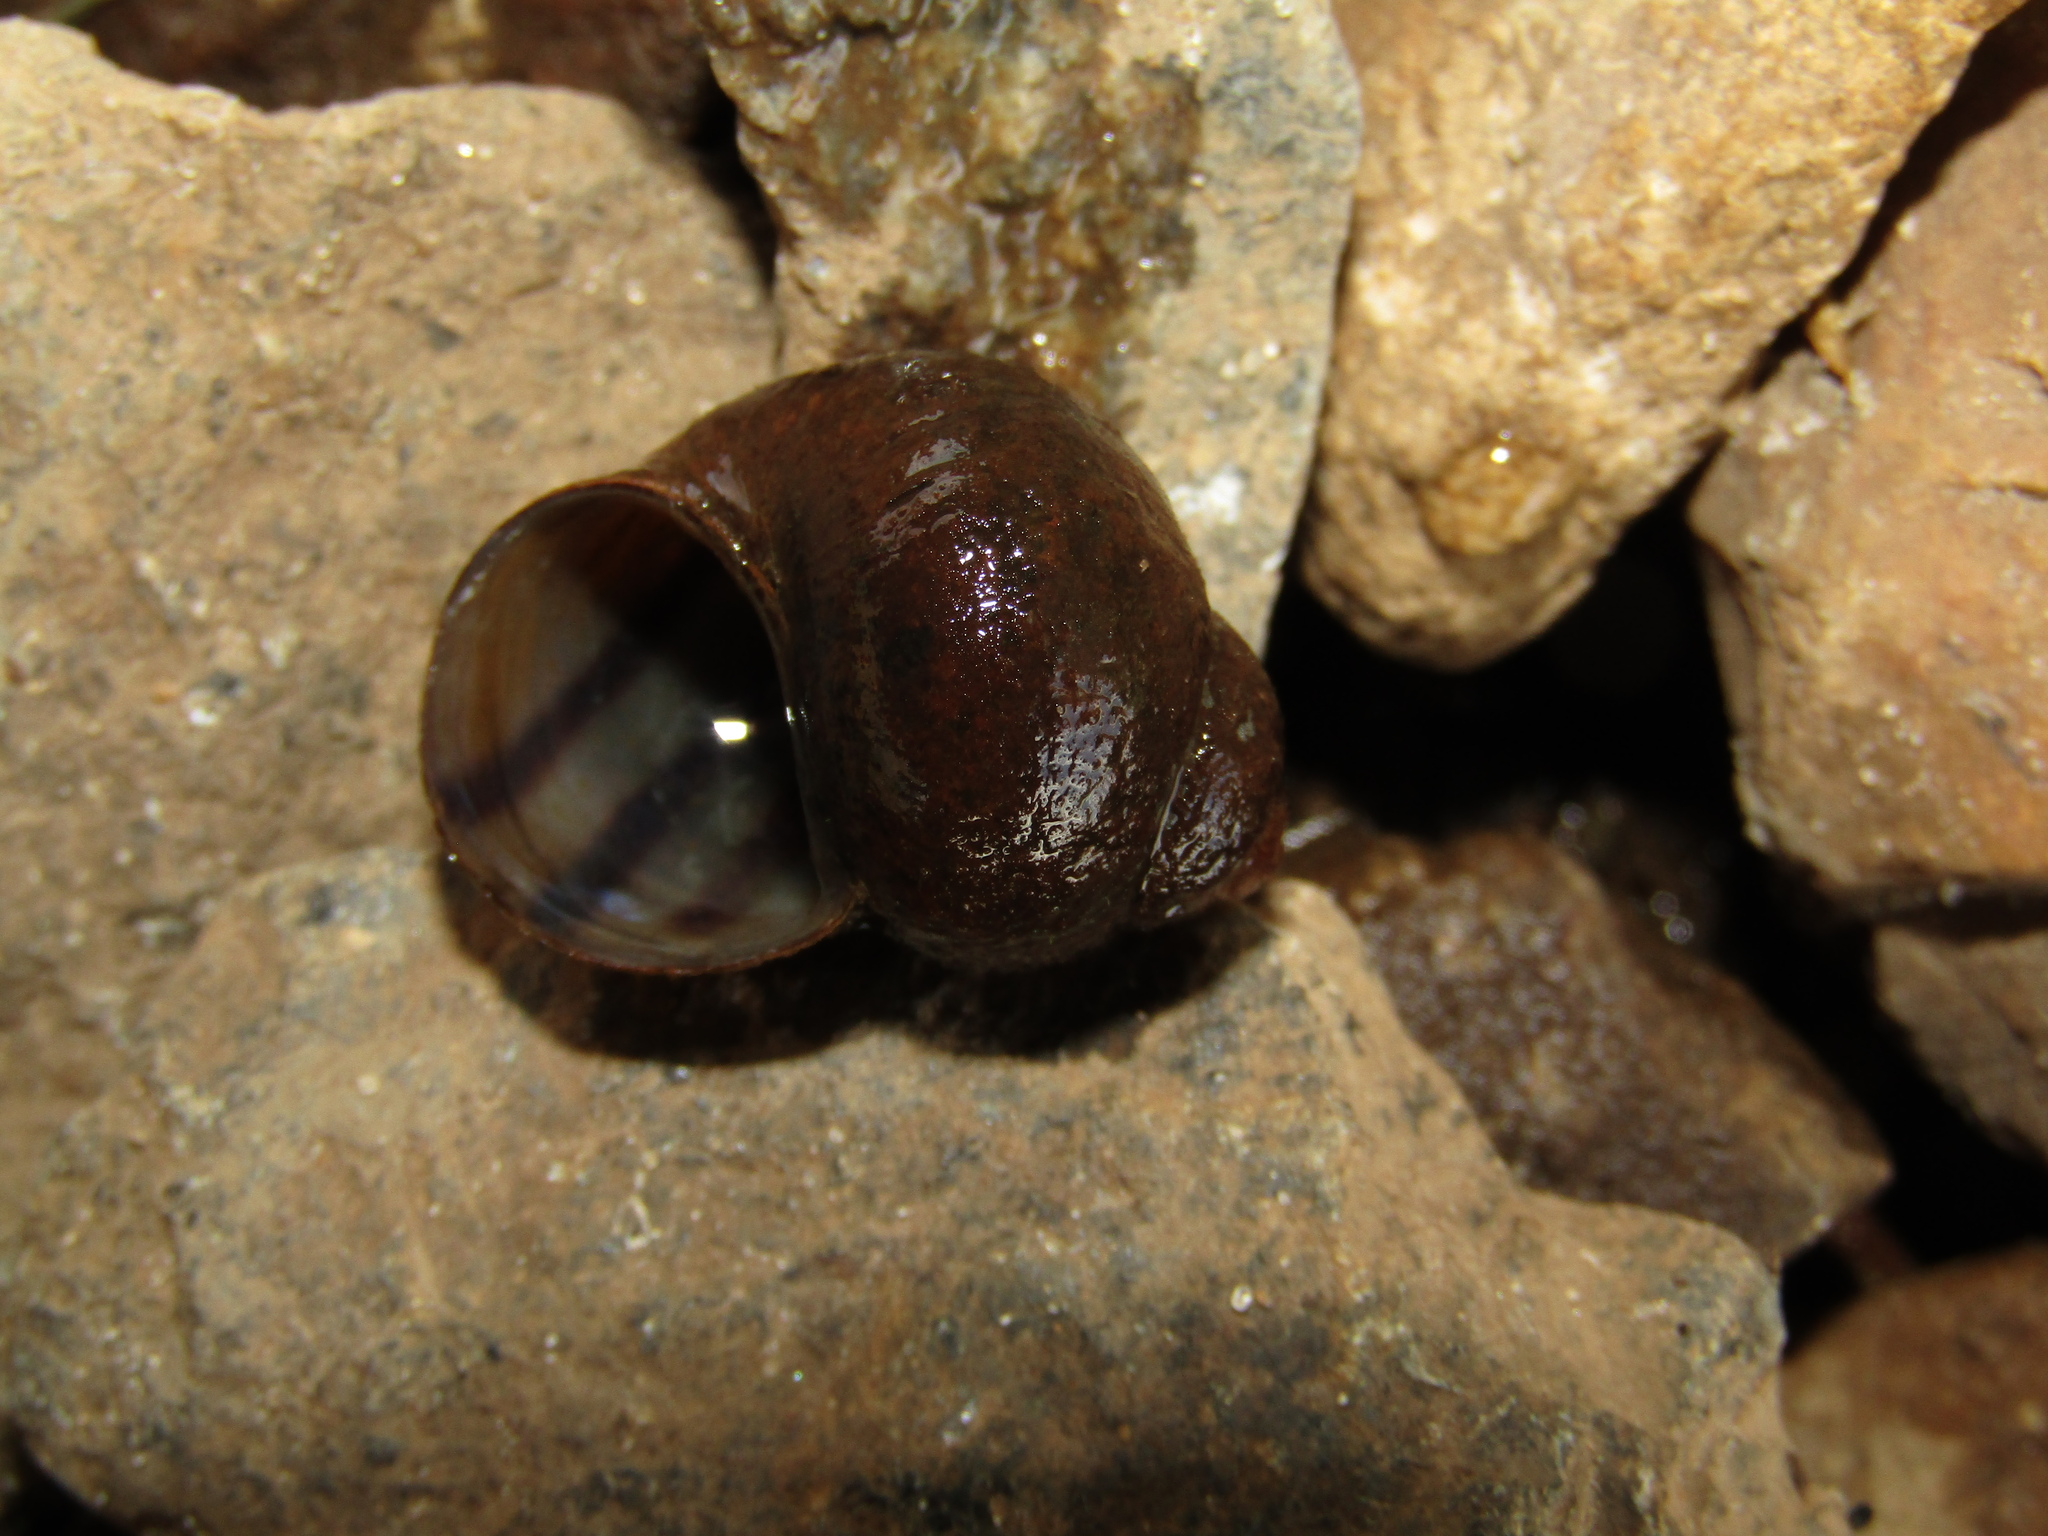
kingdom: Animalia
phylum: Mollusca
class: Gastropoda
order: Architaenioglossa
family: Viviparidae
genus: Viviparus
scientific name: Viviparus viviparus
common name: River snail
